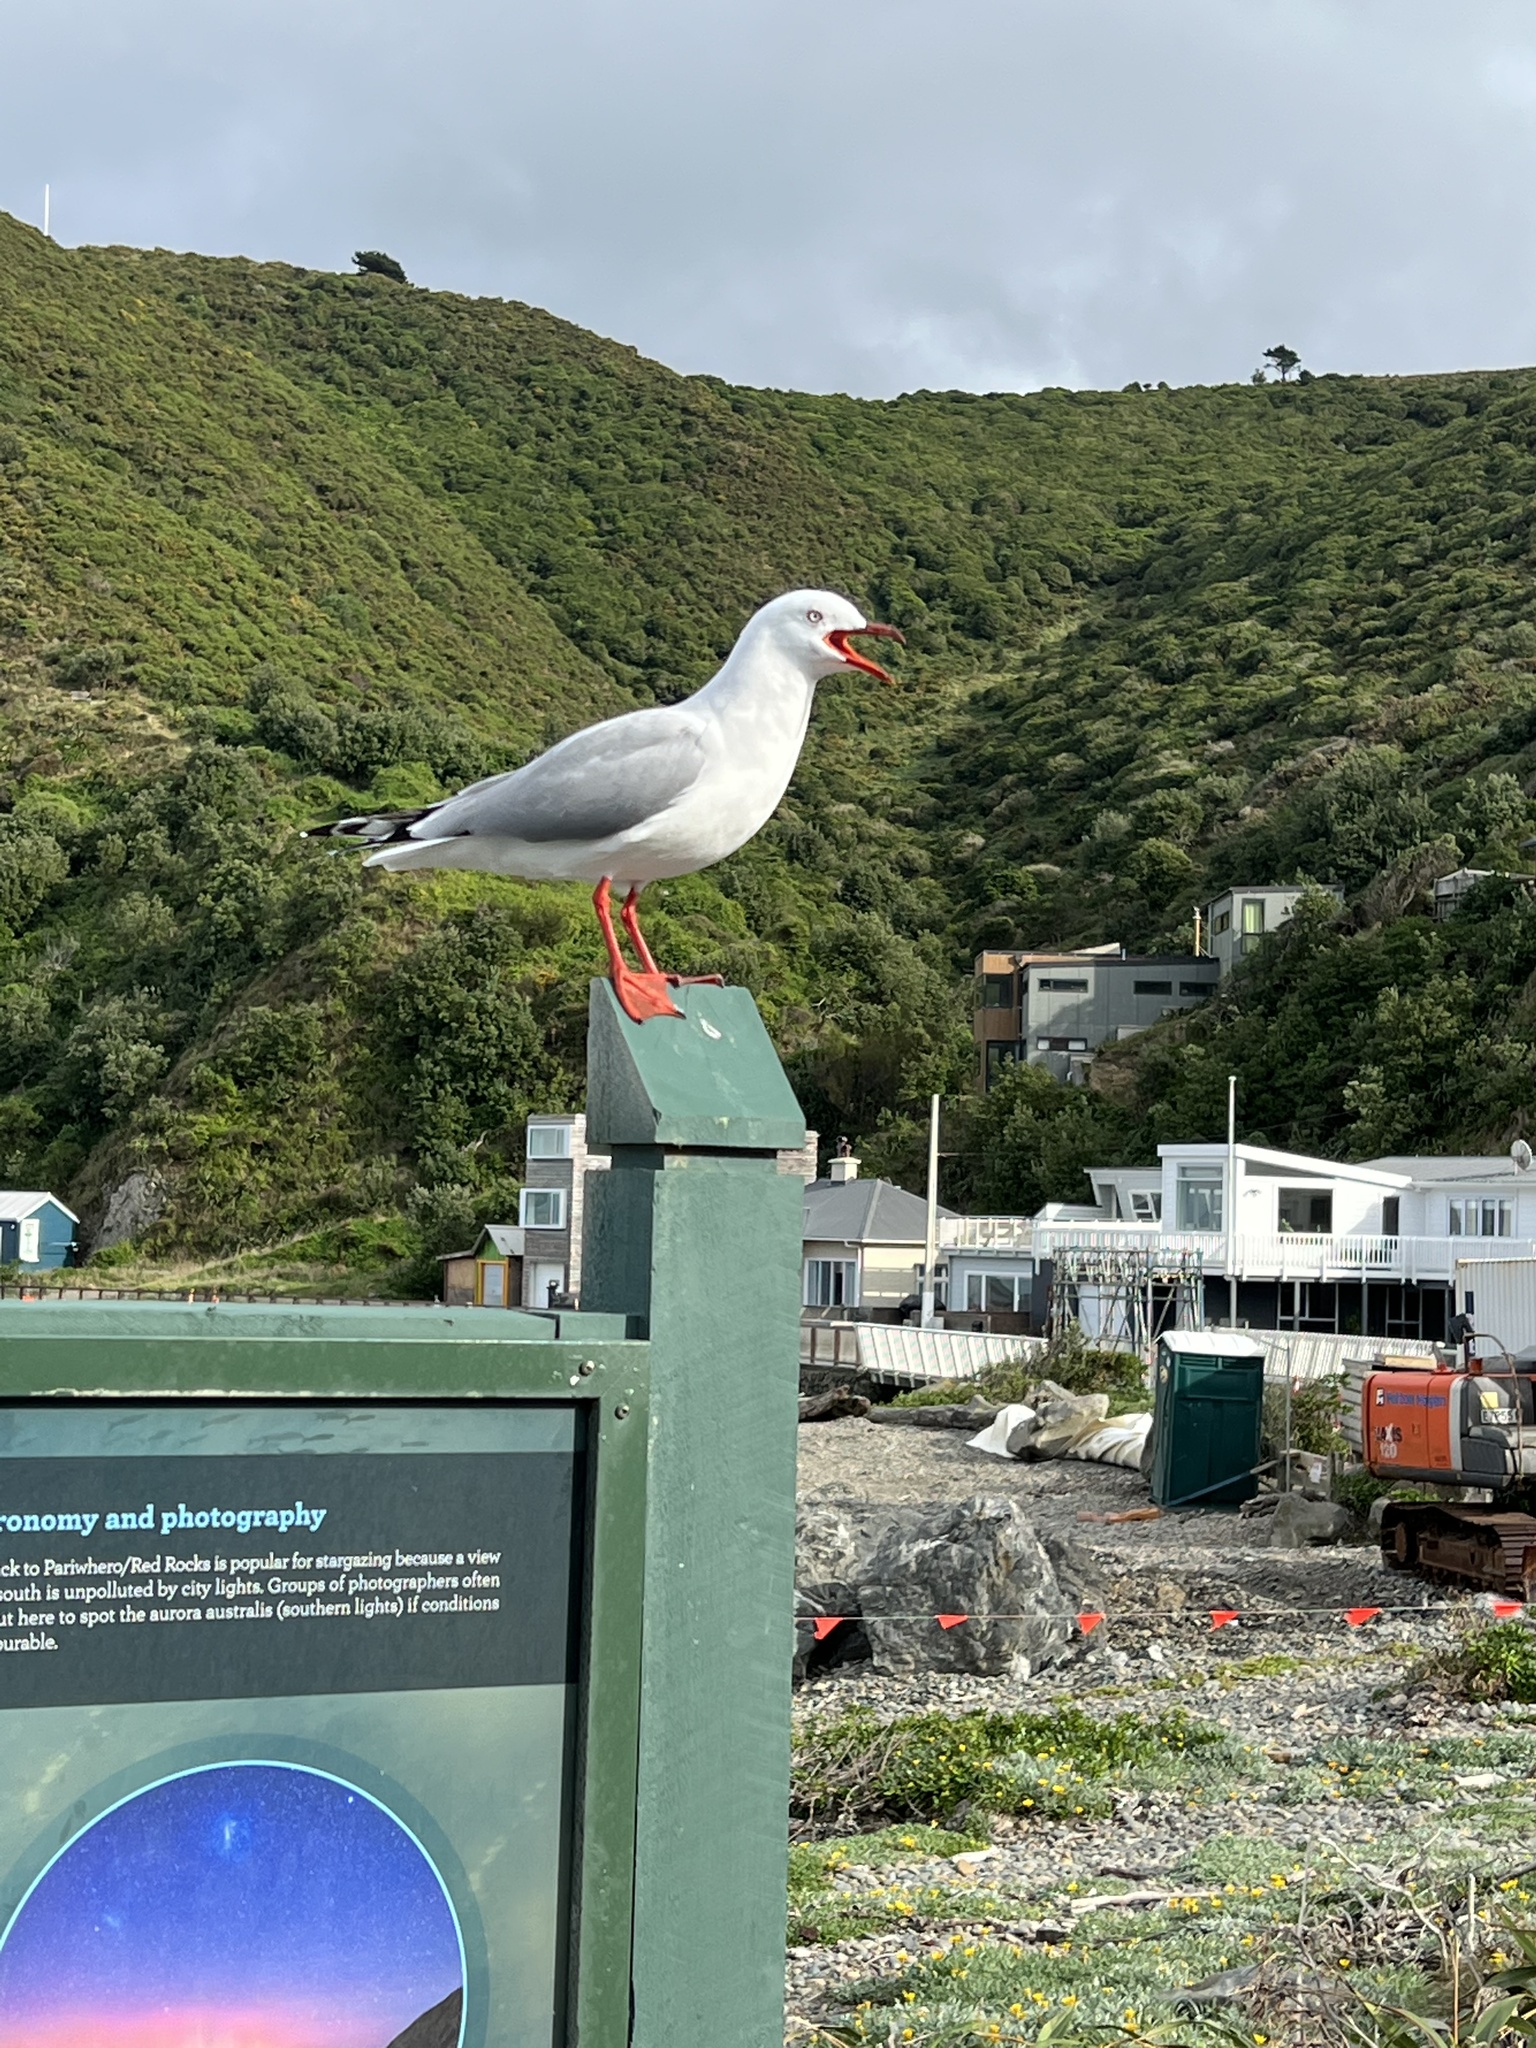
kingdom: Animalia
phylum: Chordata
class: Aves
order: Charadriiformes
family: Laridae
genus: Chroicocephalus
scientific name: Chroicocephalus novaehollandiae
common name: Silver gull
